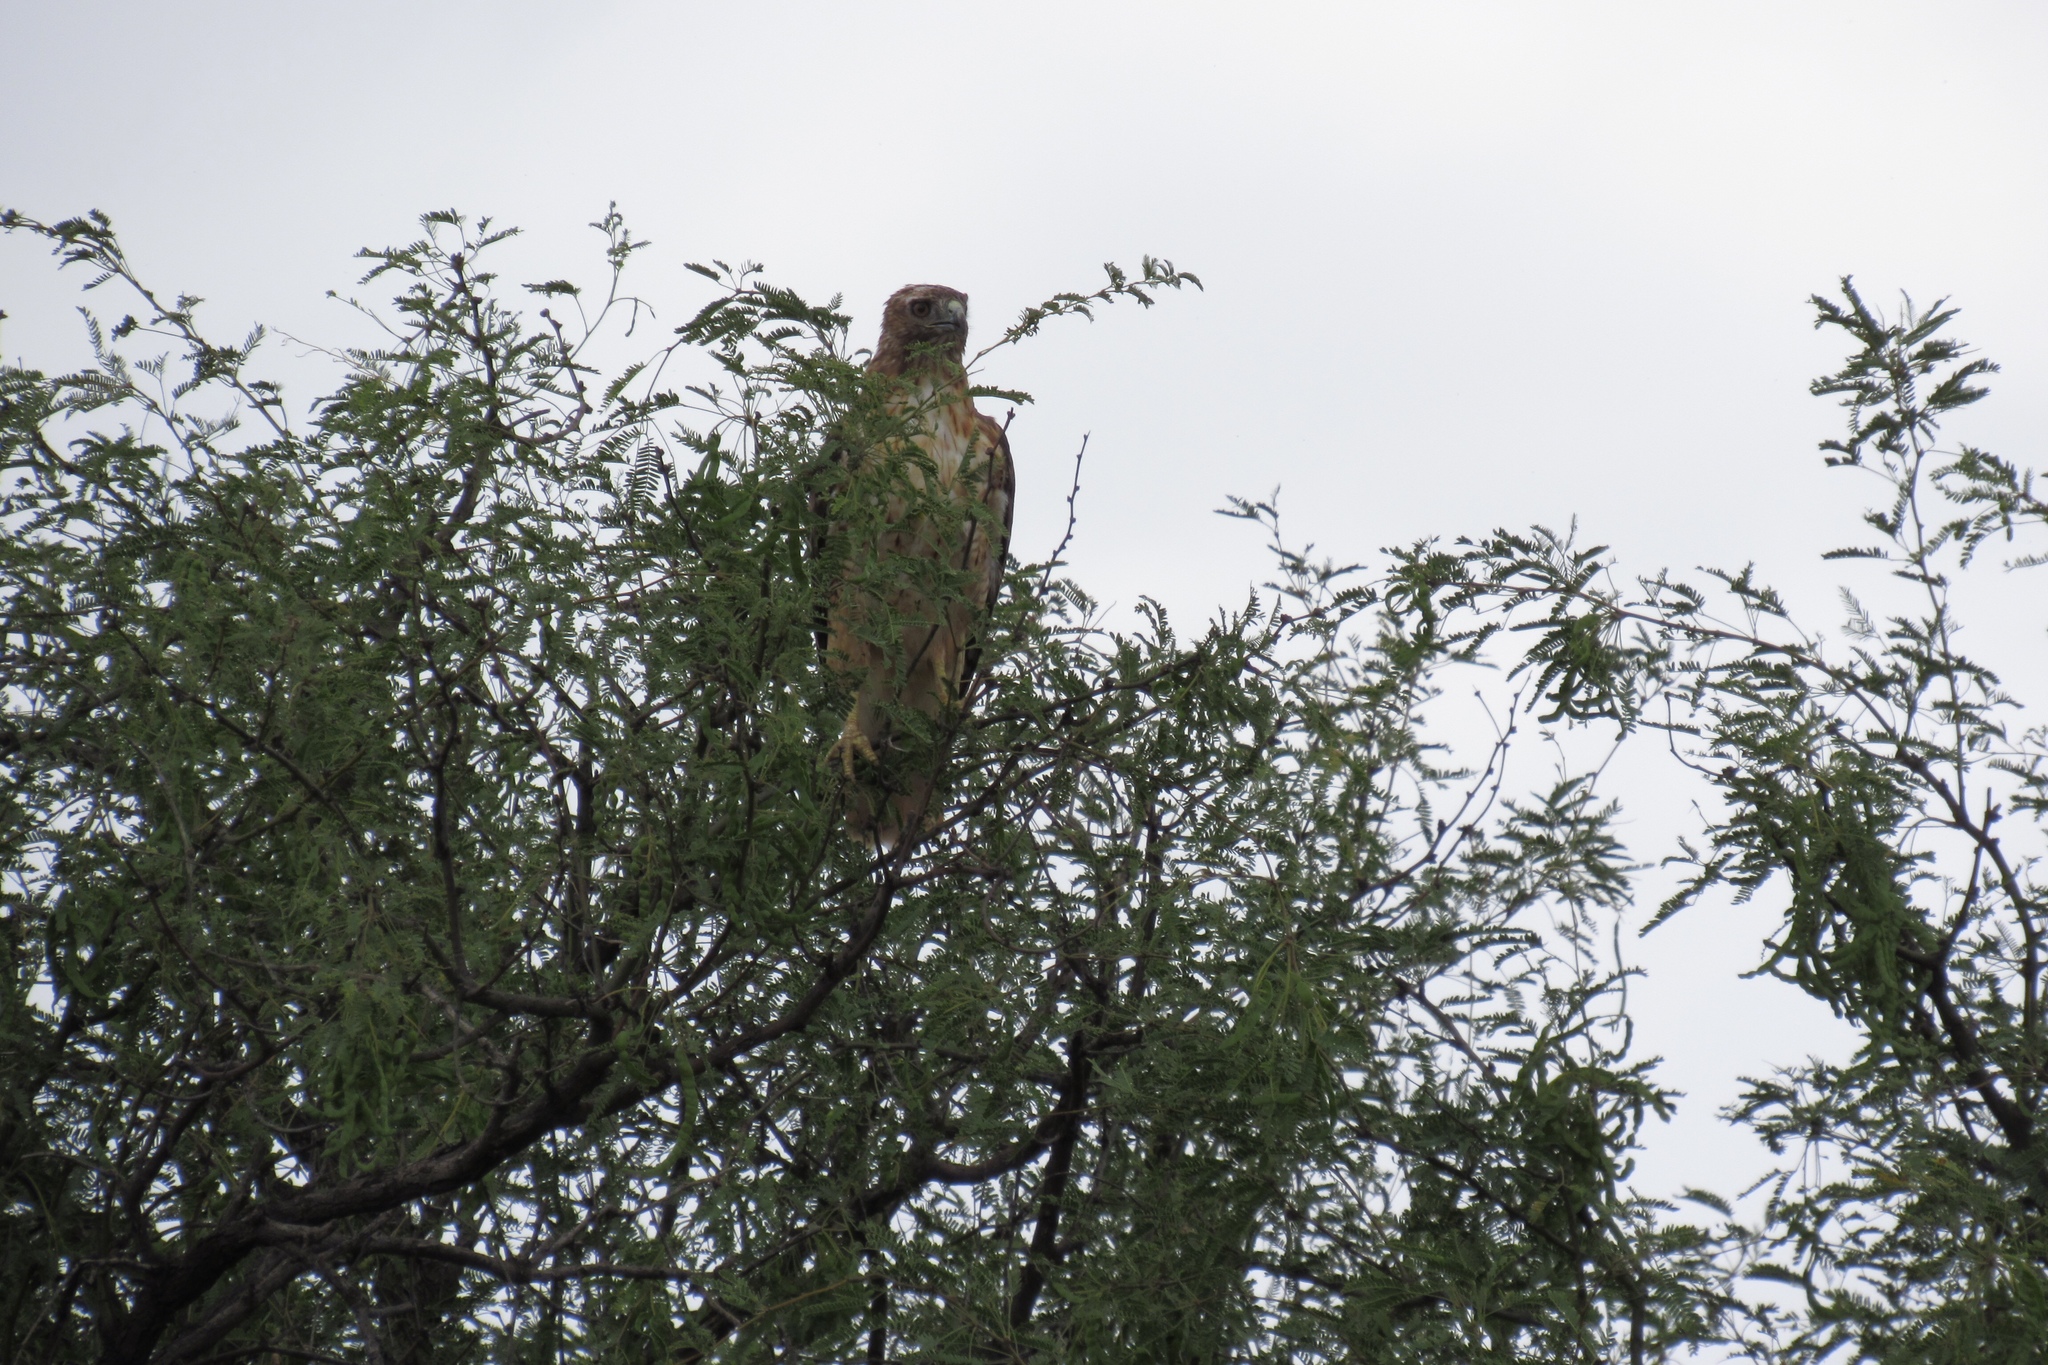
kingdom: Animalia
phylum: Chordata
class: Aves
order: Accipitriformes
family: Accipitridae
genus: Buteo
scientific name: Buteo jamaicensis
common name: Red-tailed hawk
